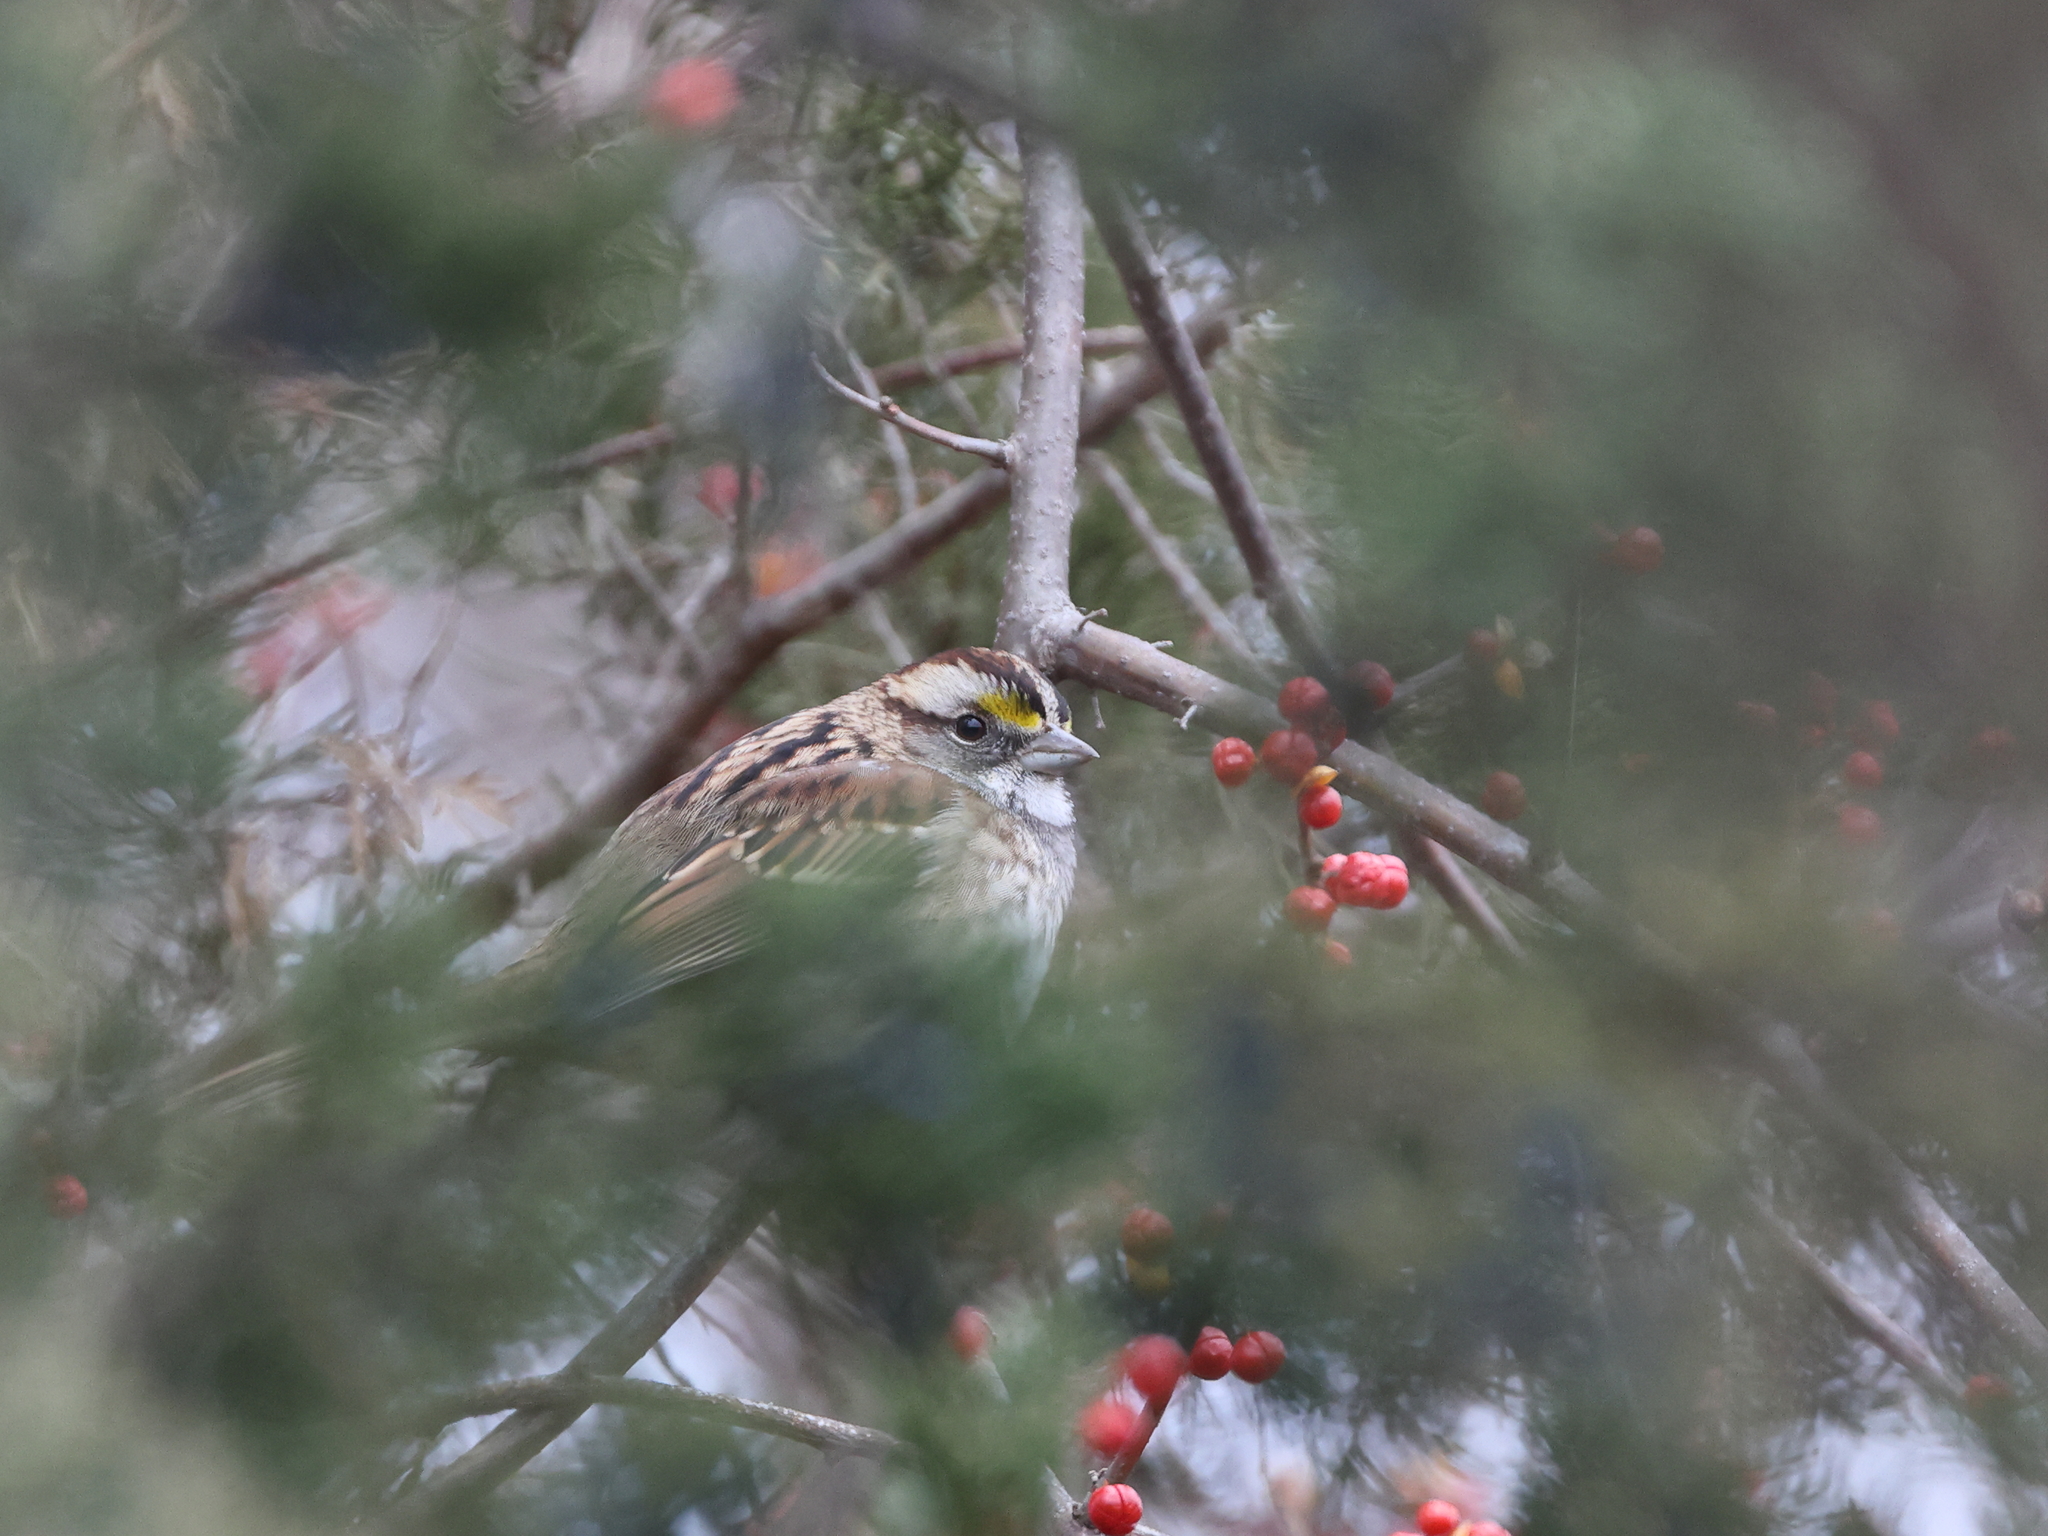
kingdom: Animalia
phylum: Chordata
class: Aves
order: Passeriformes
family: Passerellidae
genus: Zonotrichia
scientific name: Zonotrichia albicollis
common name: White-throated sparrow
